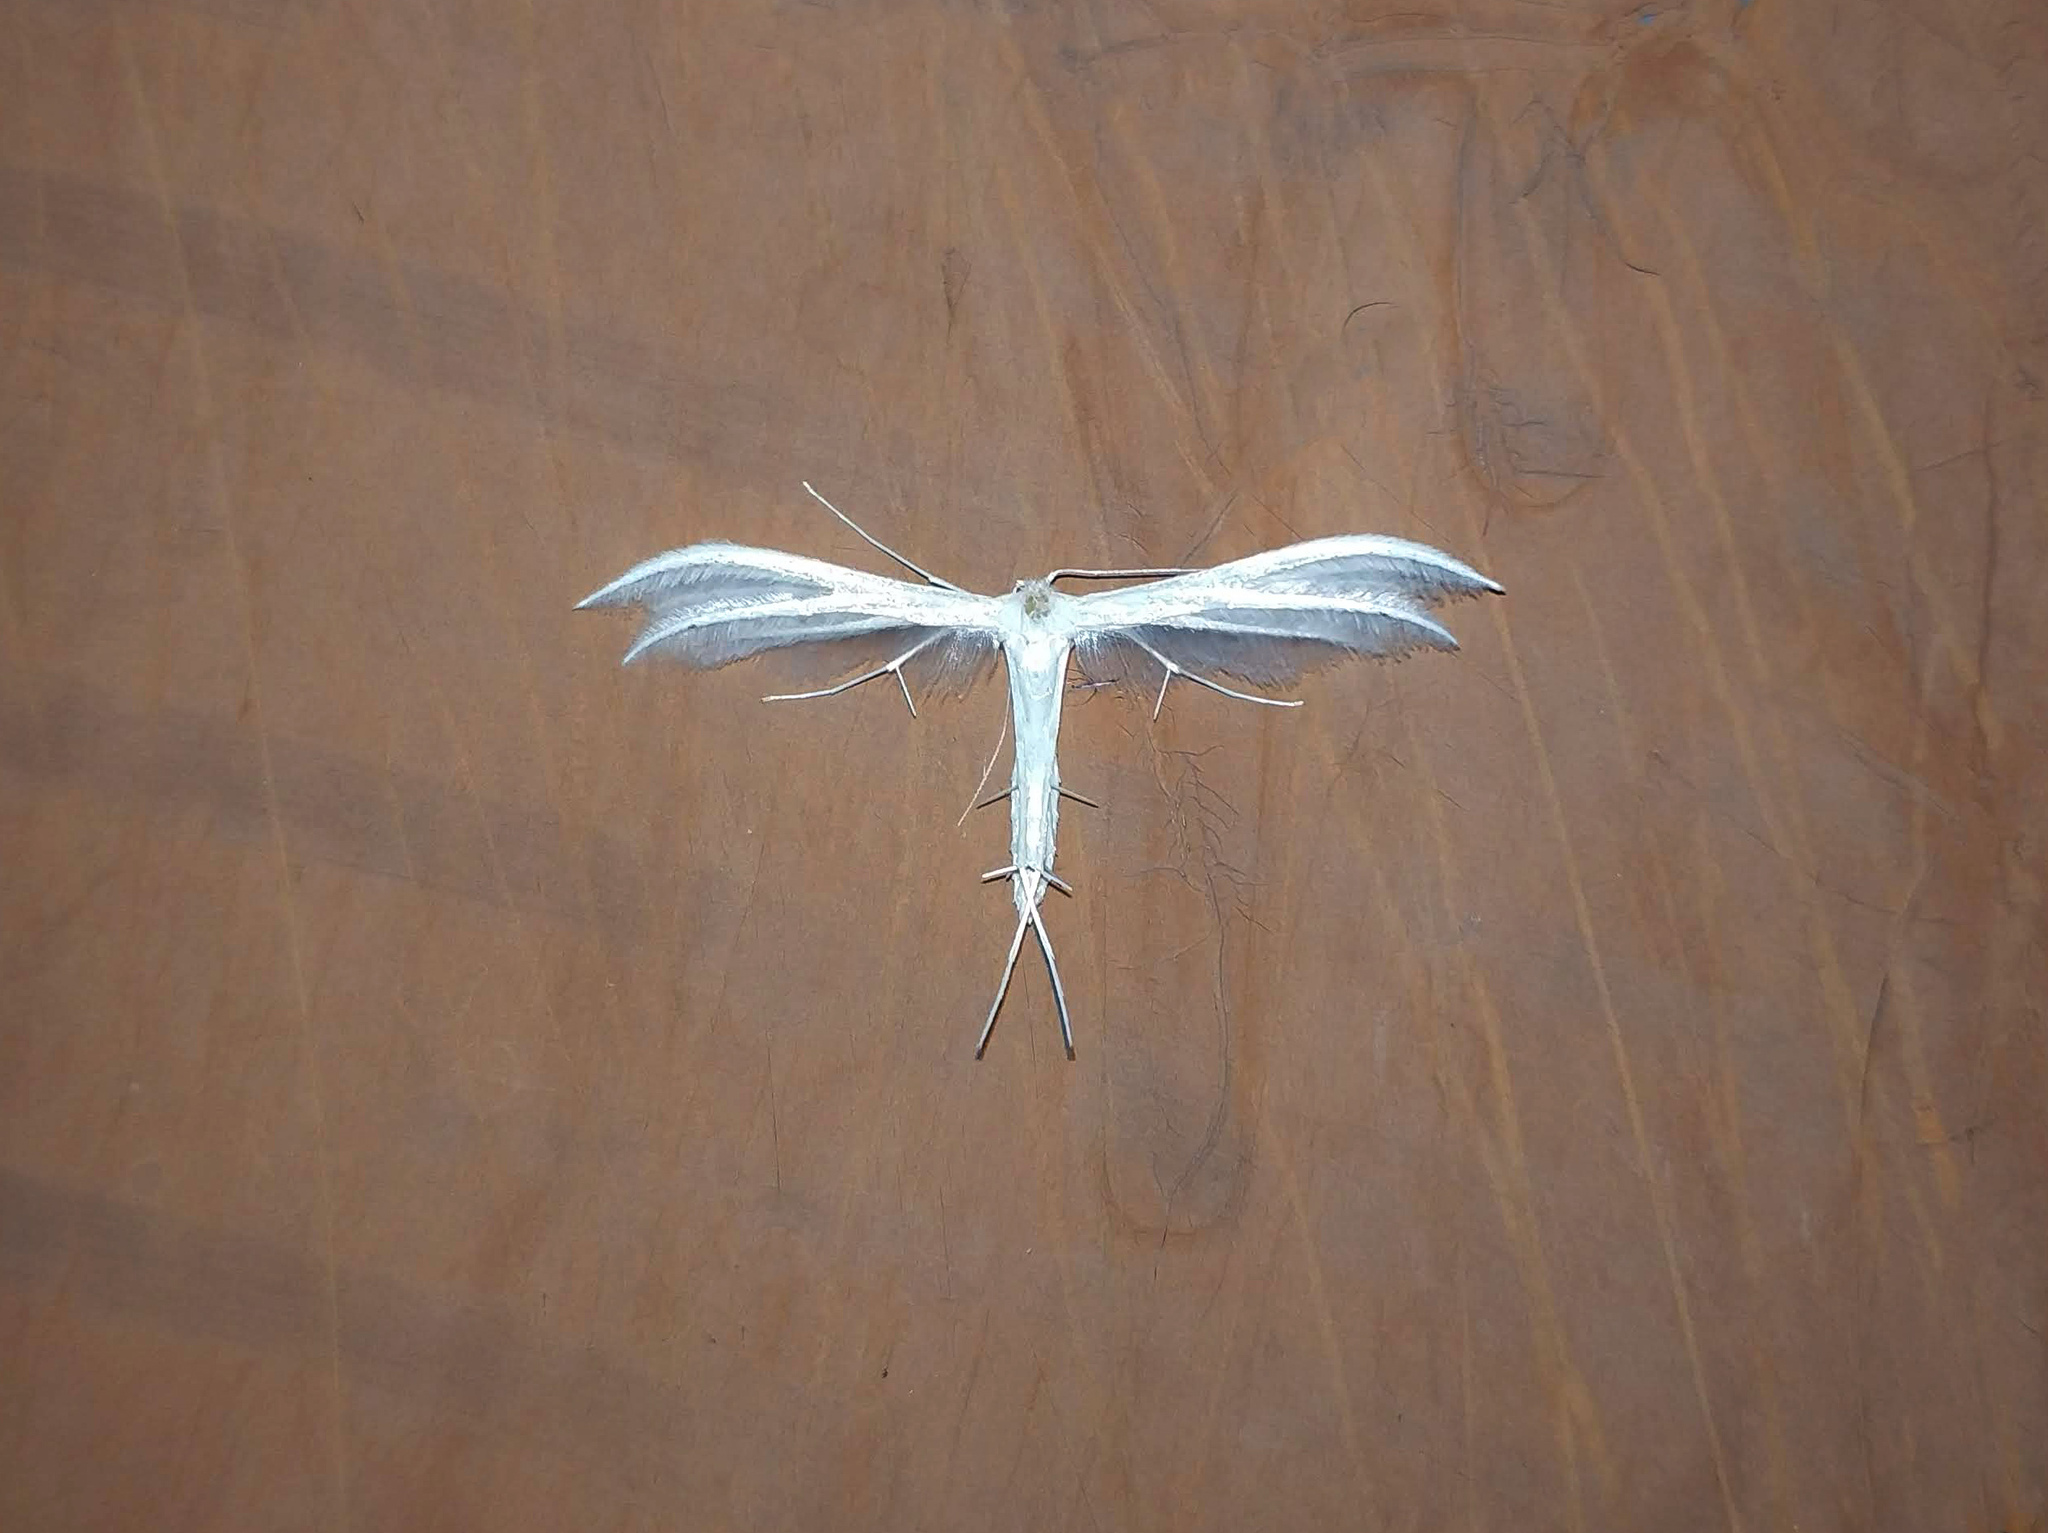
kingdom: Animalia
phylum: Arthropoda
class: Insecta
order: Lepidoptera
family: Pterophoridae
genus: Pterophorus
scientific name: Pterophorus pentadactyla
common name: White plume moth
